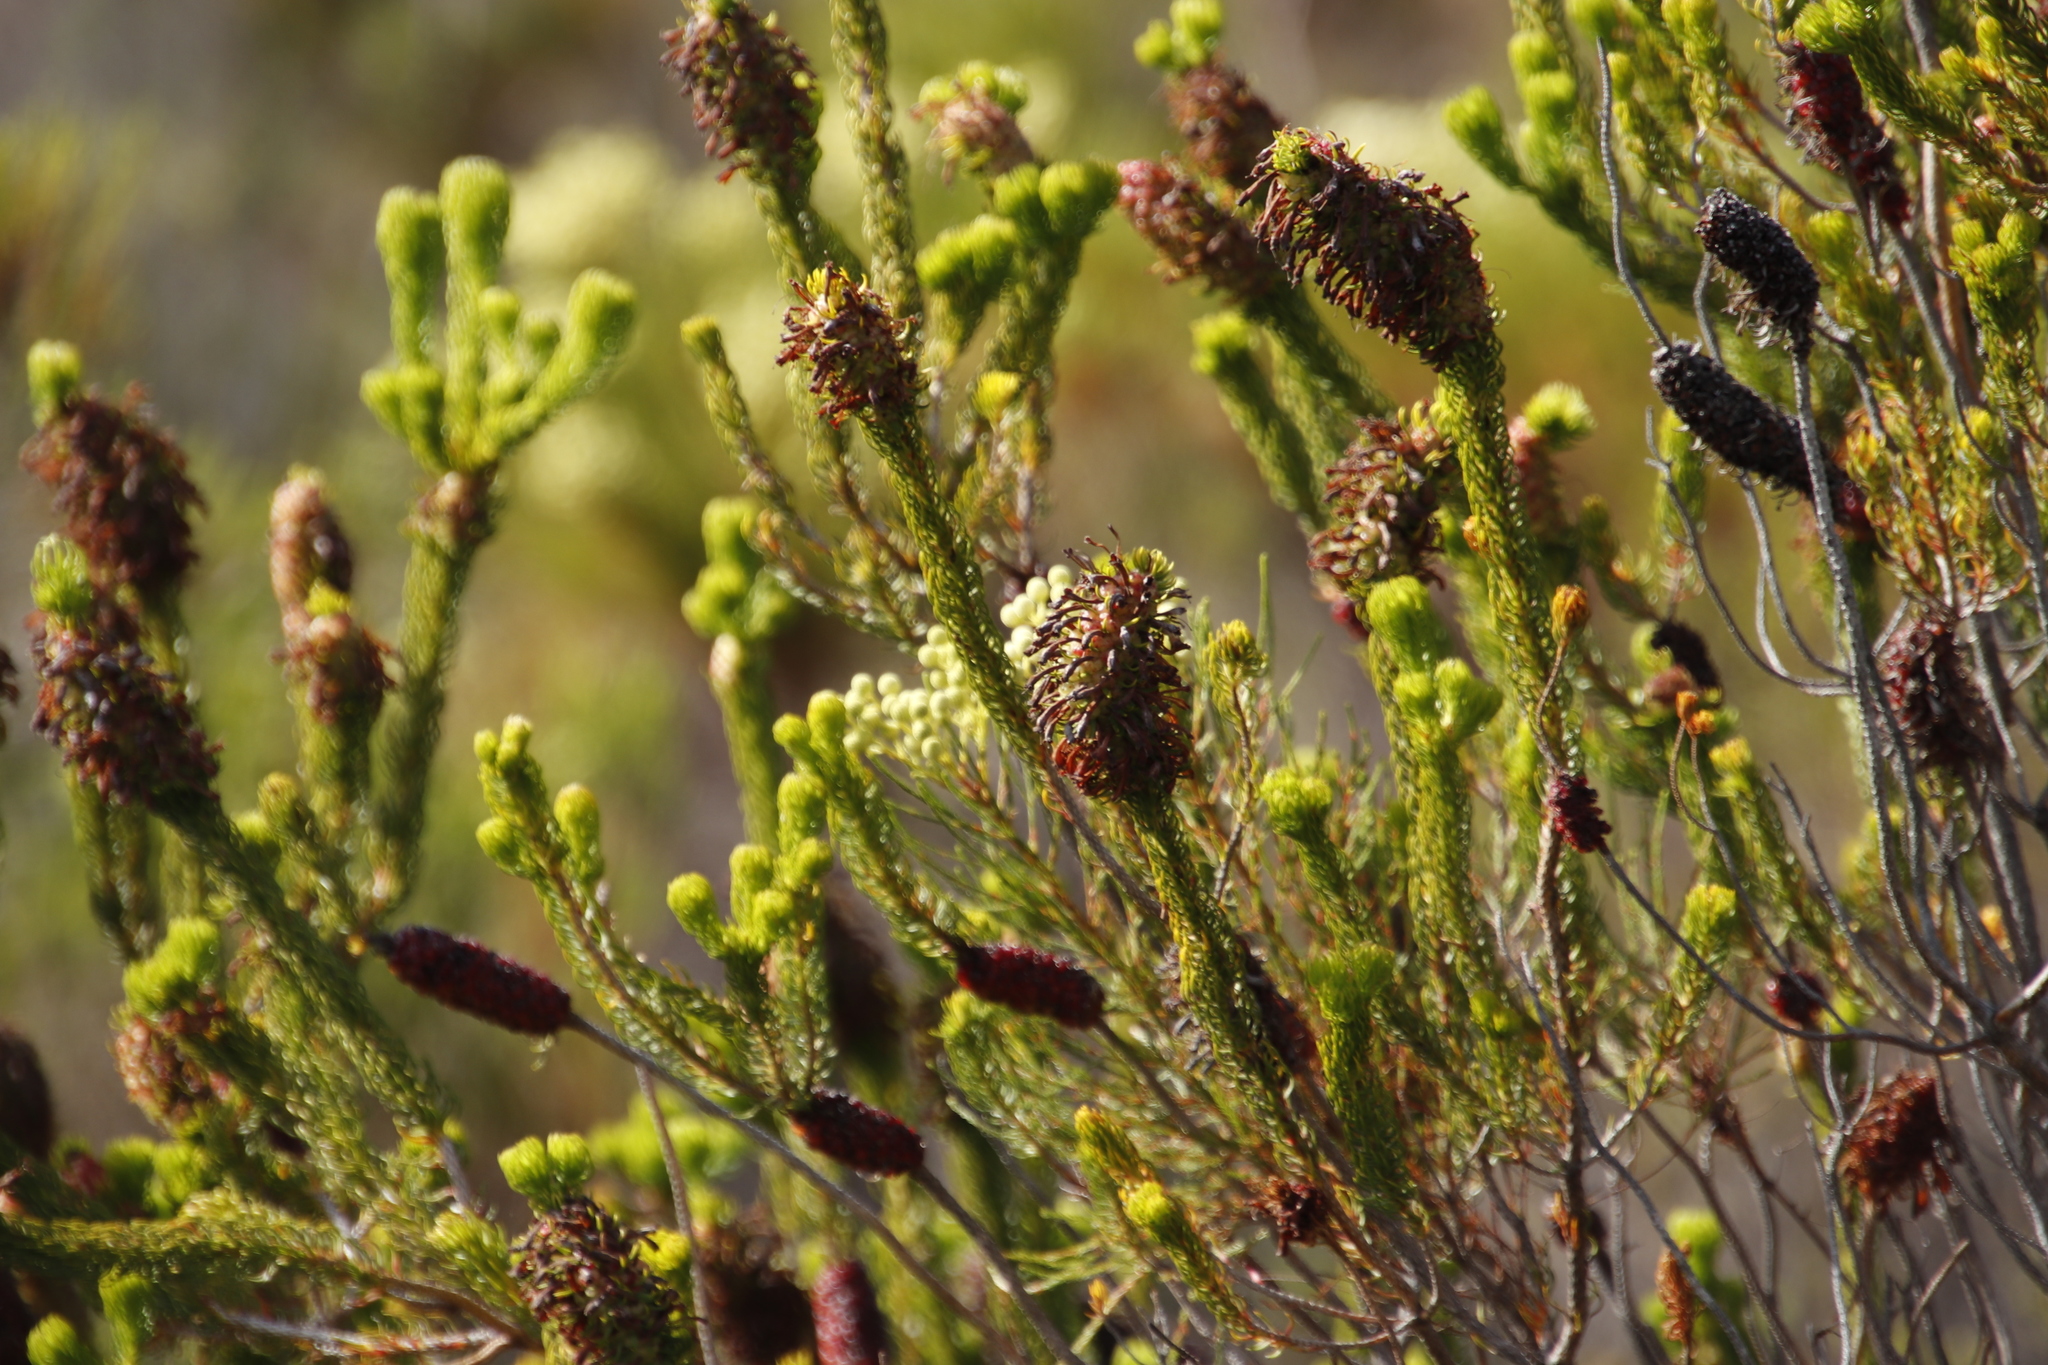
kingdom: Plantae
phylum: Tracheophyta
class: Magnoliopsida
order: Ericales
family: Ericaceae
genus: Erica
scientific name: Erica sessiliflora
